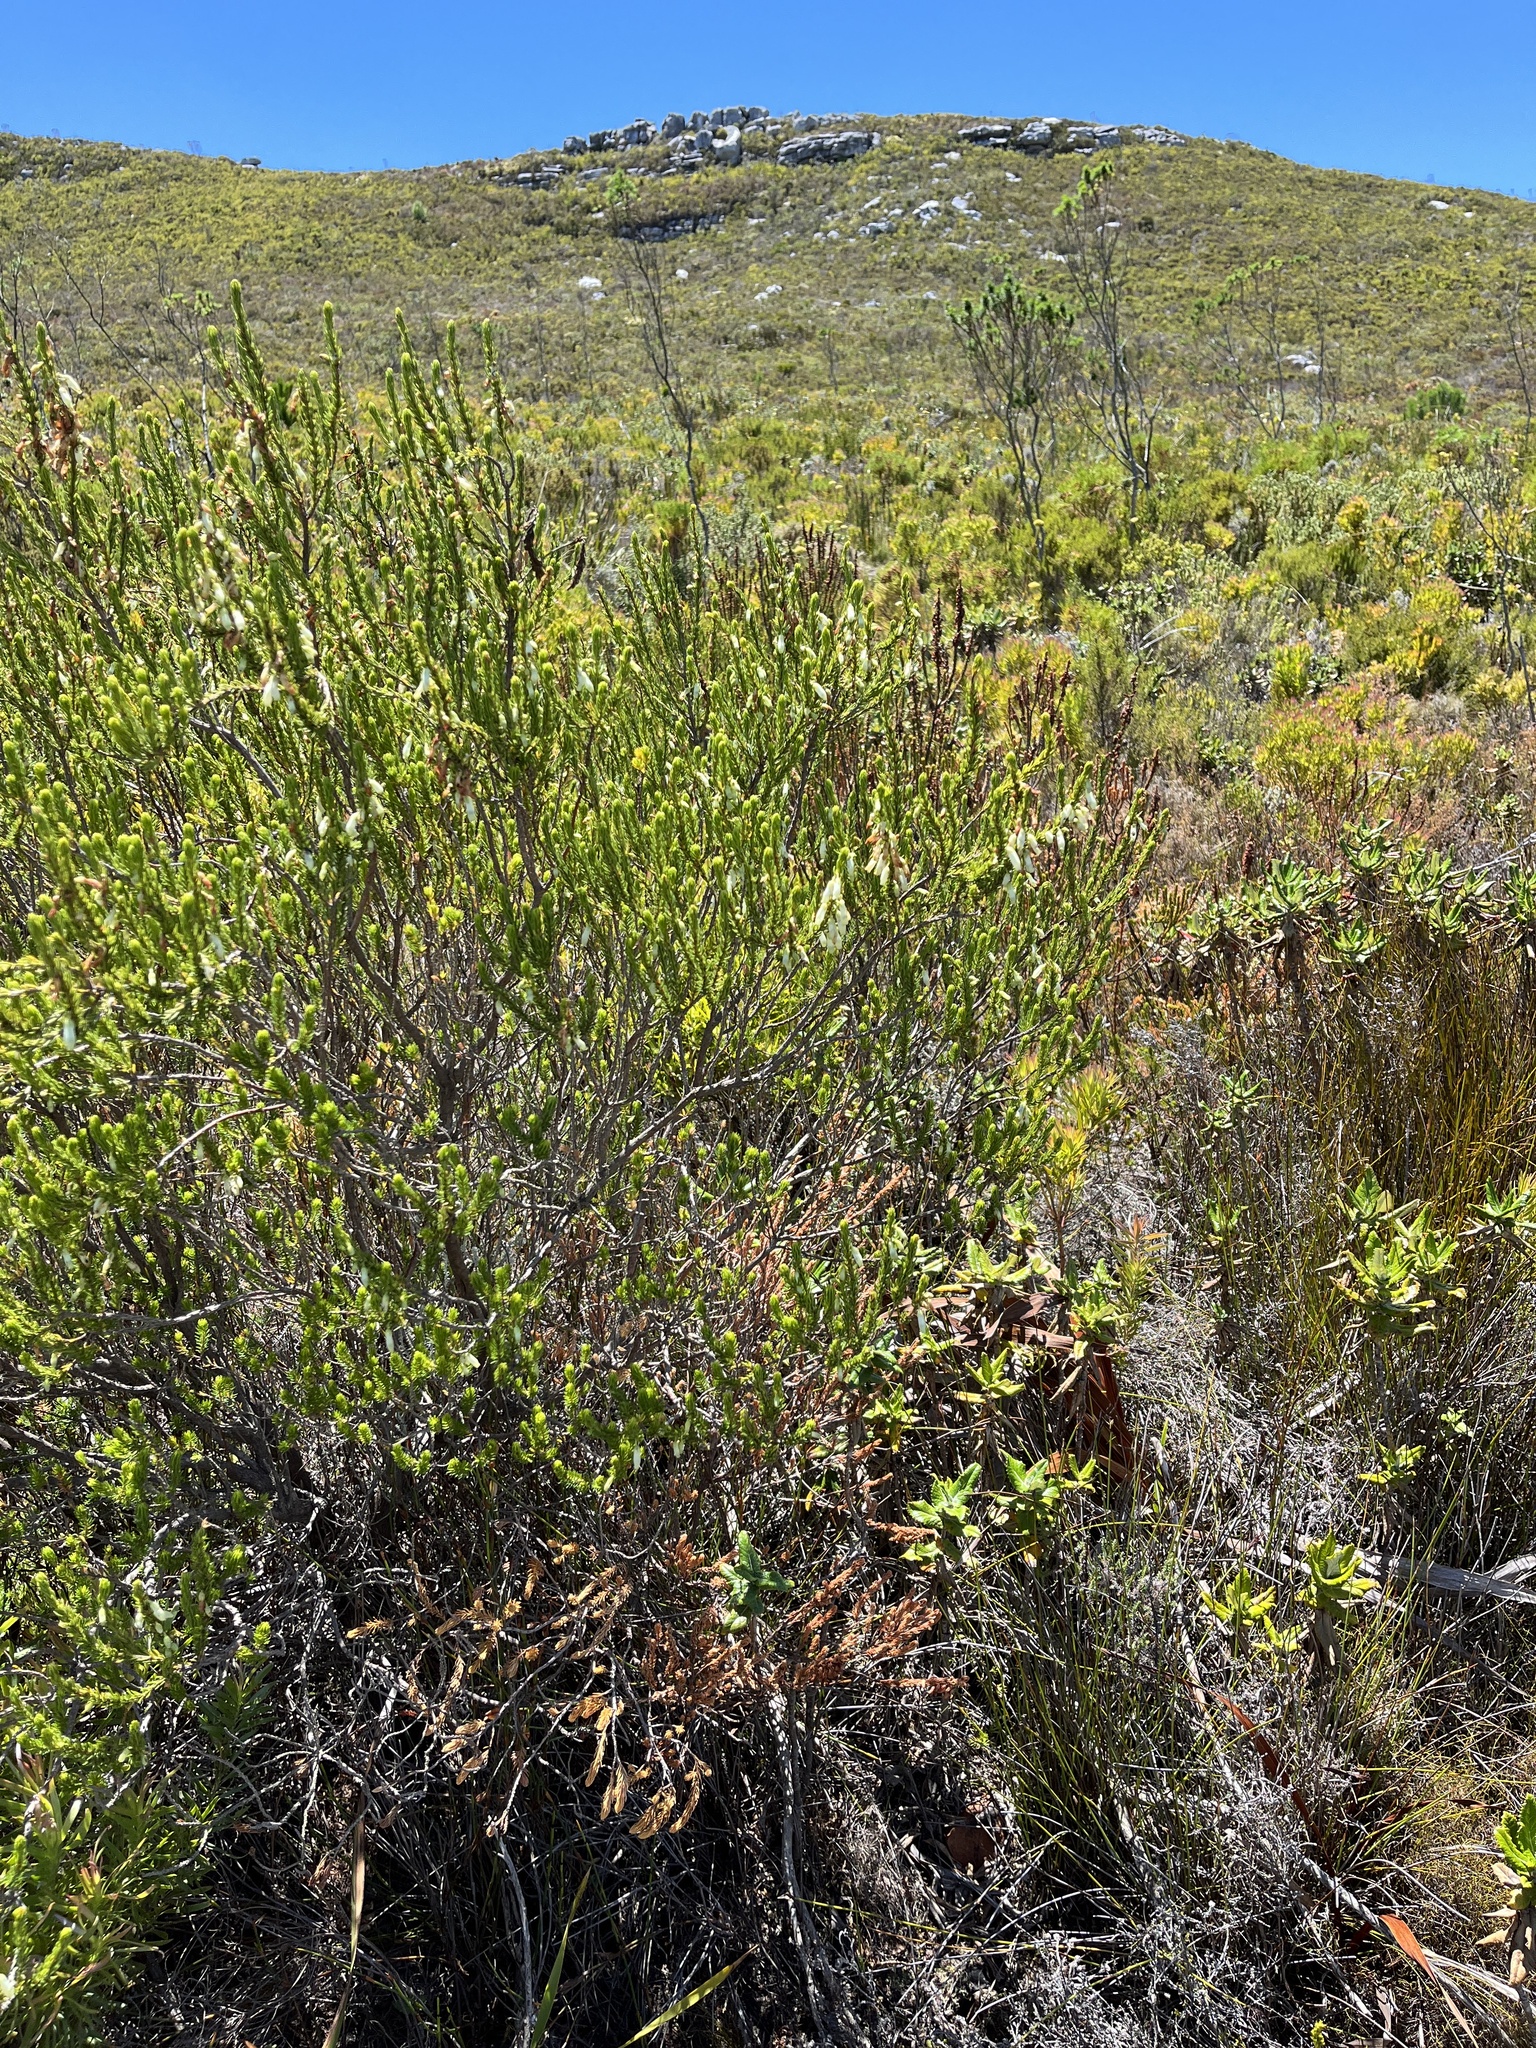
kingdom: Plantae
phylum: Tracheophyta
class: Magnoliopsida
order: Ericales
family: Ericaceae
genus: Erica
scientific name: Erica mammosa
